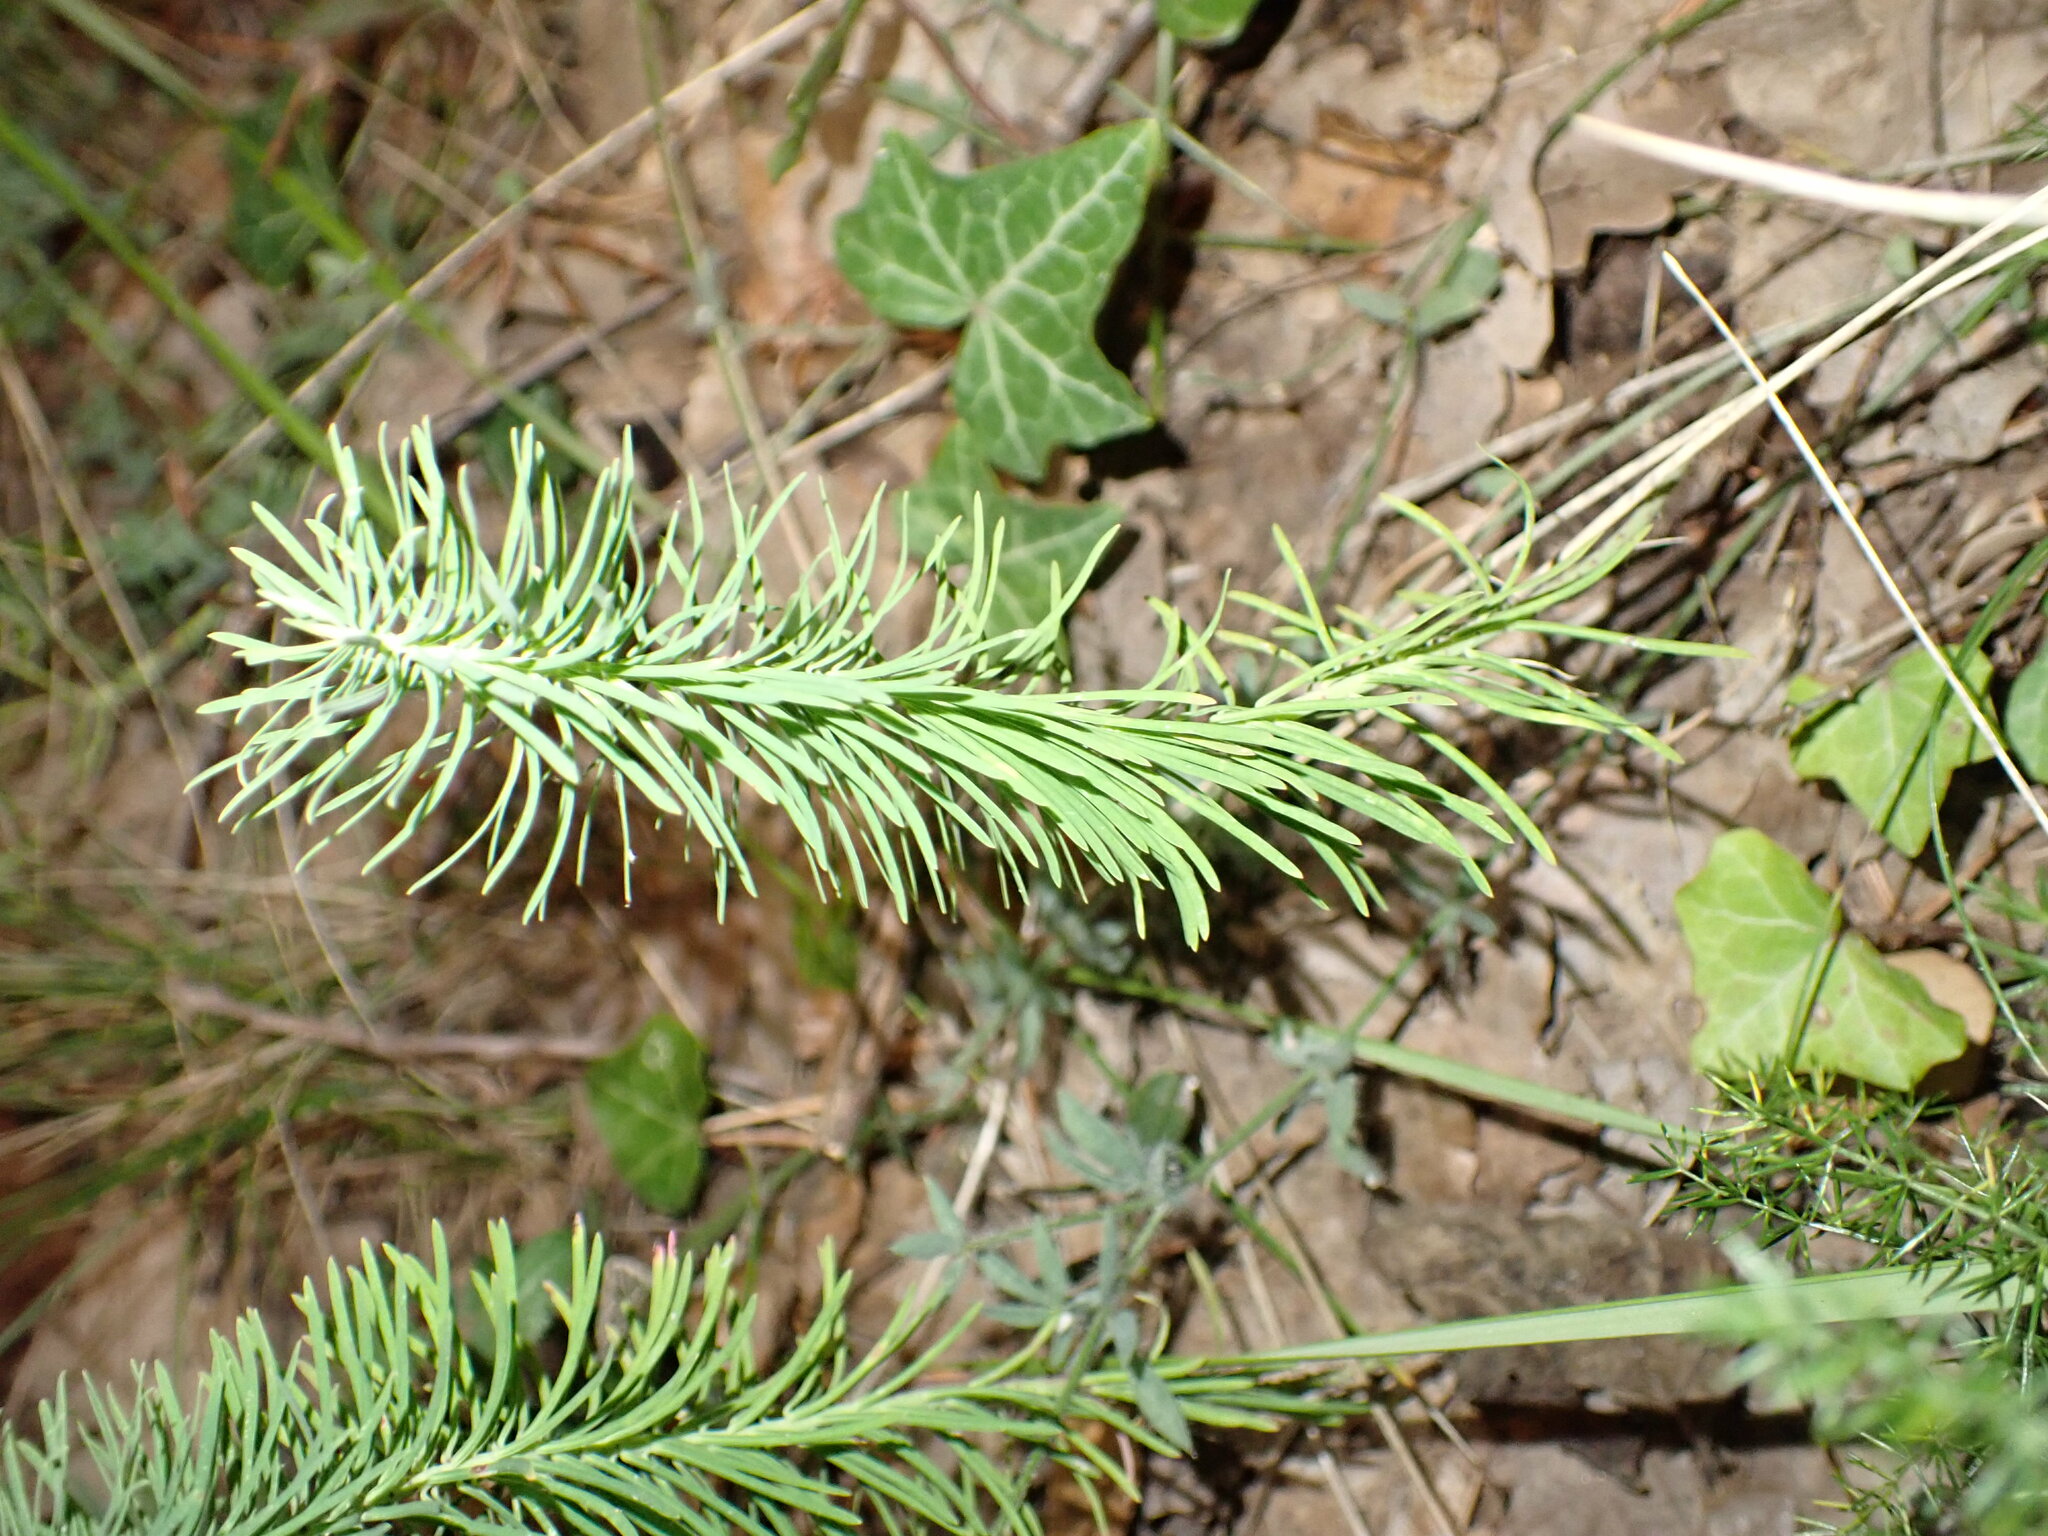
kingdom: Plantae
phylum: Tracheophyta
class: Magnoliopsida
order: Malpighiales
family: Euphorbiaceae
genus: Euphorbia
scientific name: Euphorbia cyparissias
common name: Cypress spurge
